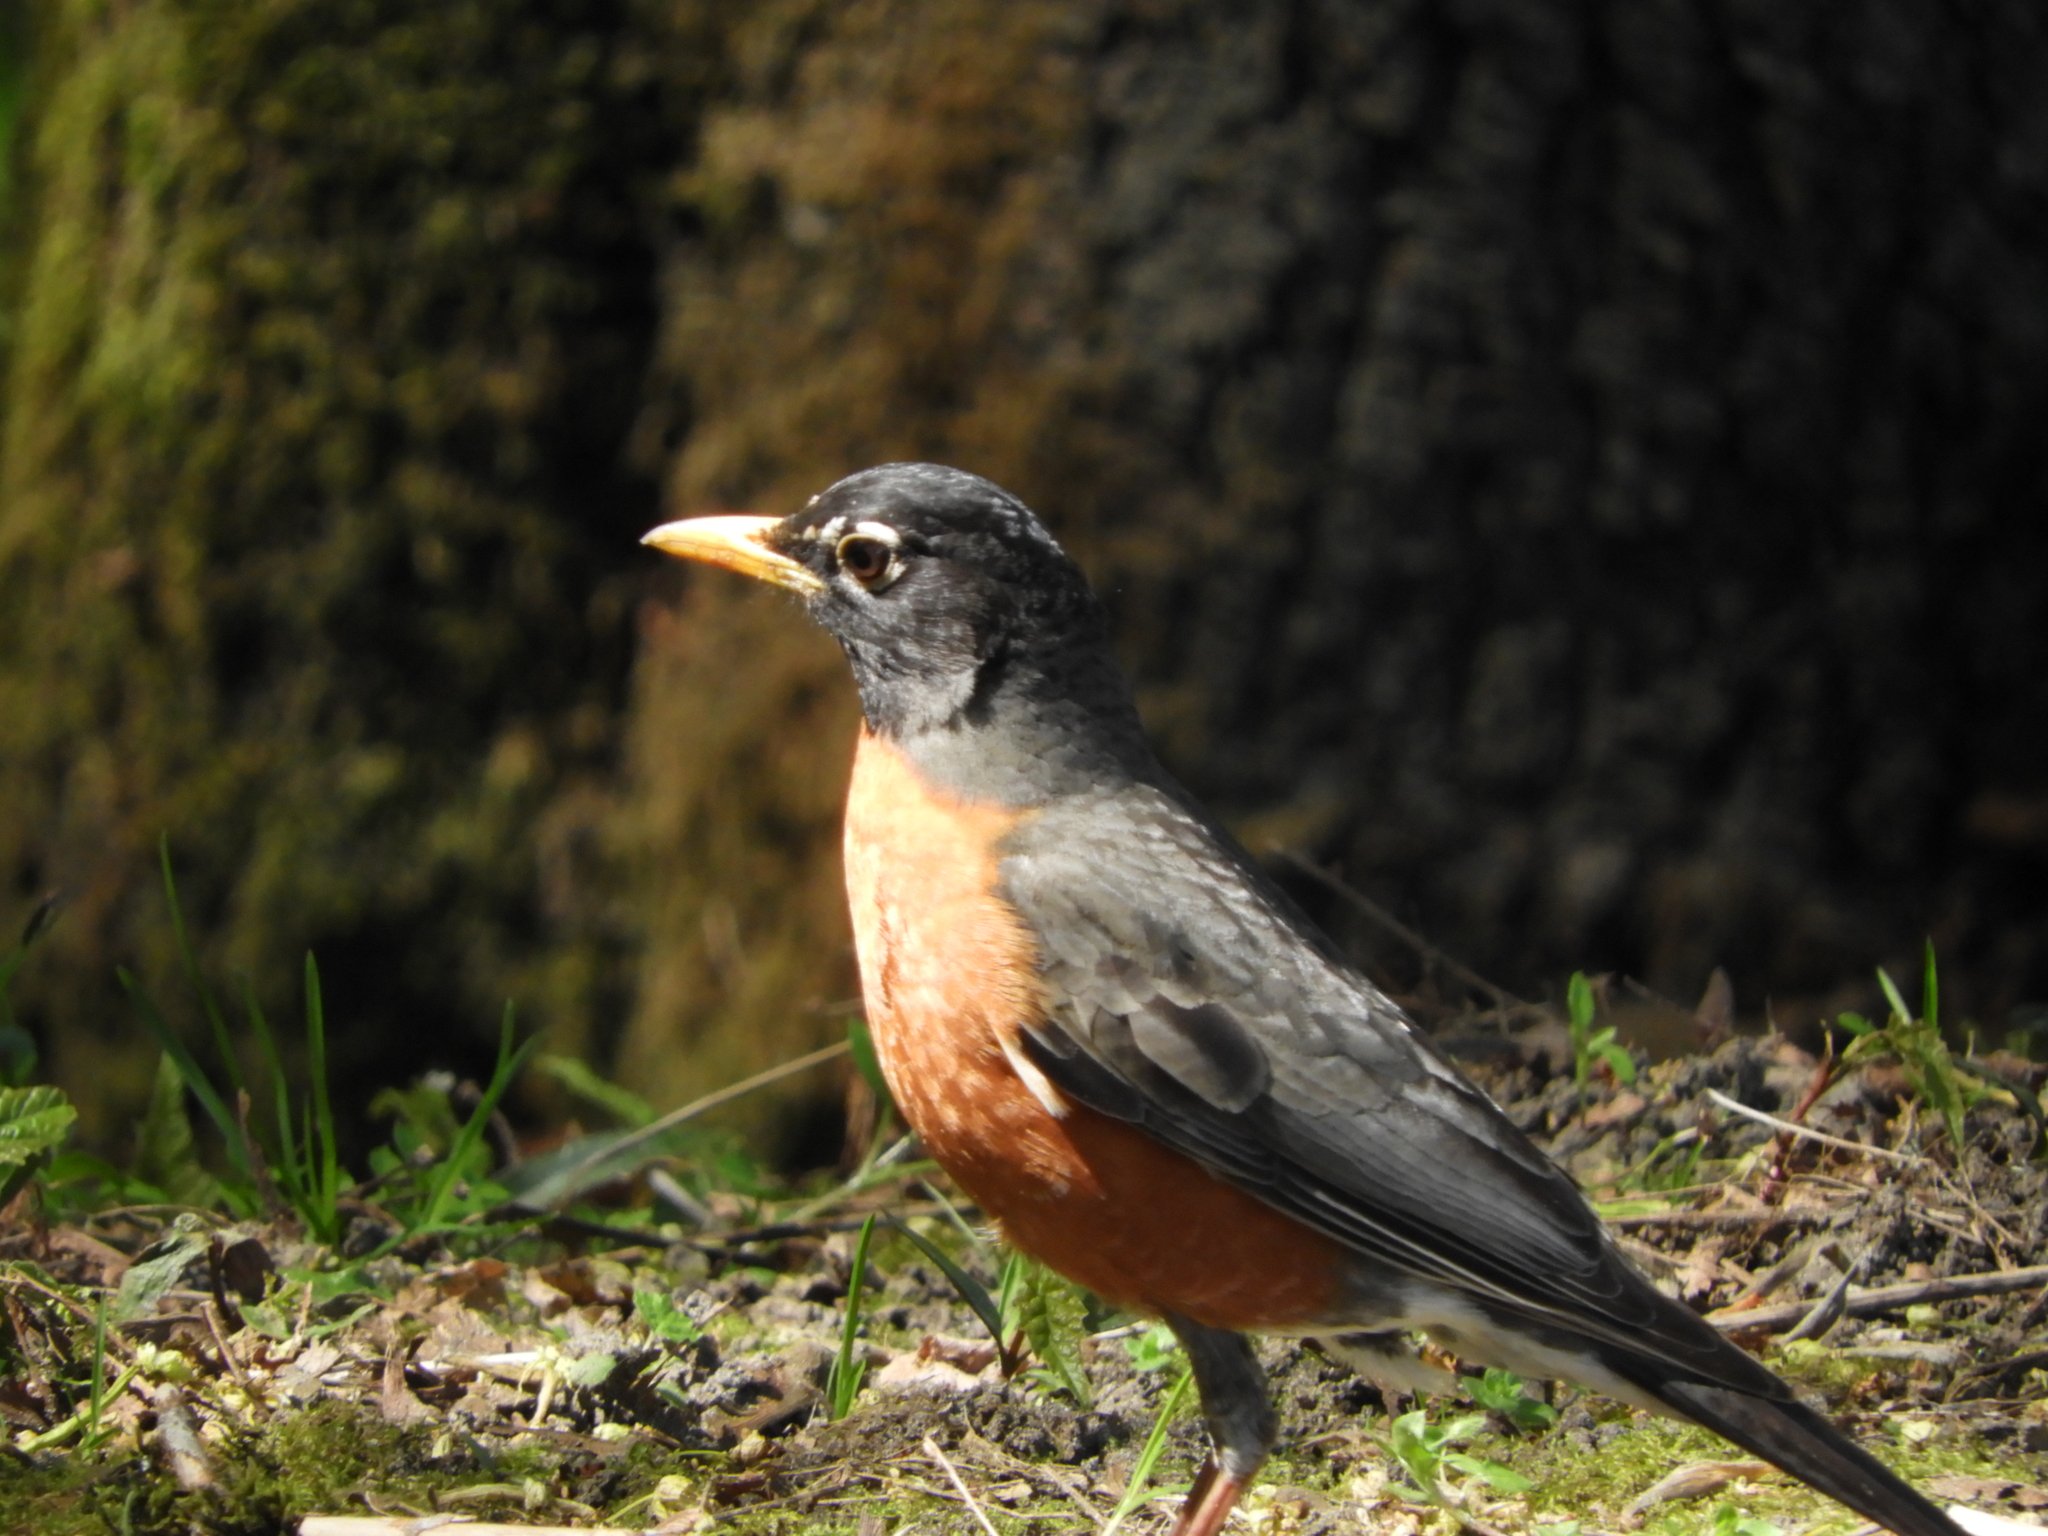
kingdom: Animalia
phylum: Chordata
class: Aves
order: Passeriformes
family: Turdidae
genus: Turdus
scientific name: Turdus migratorius
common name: American robin
